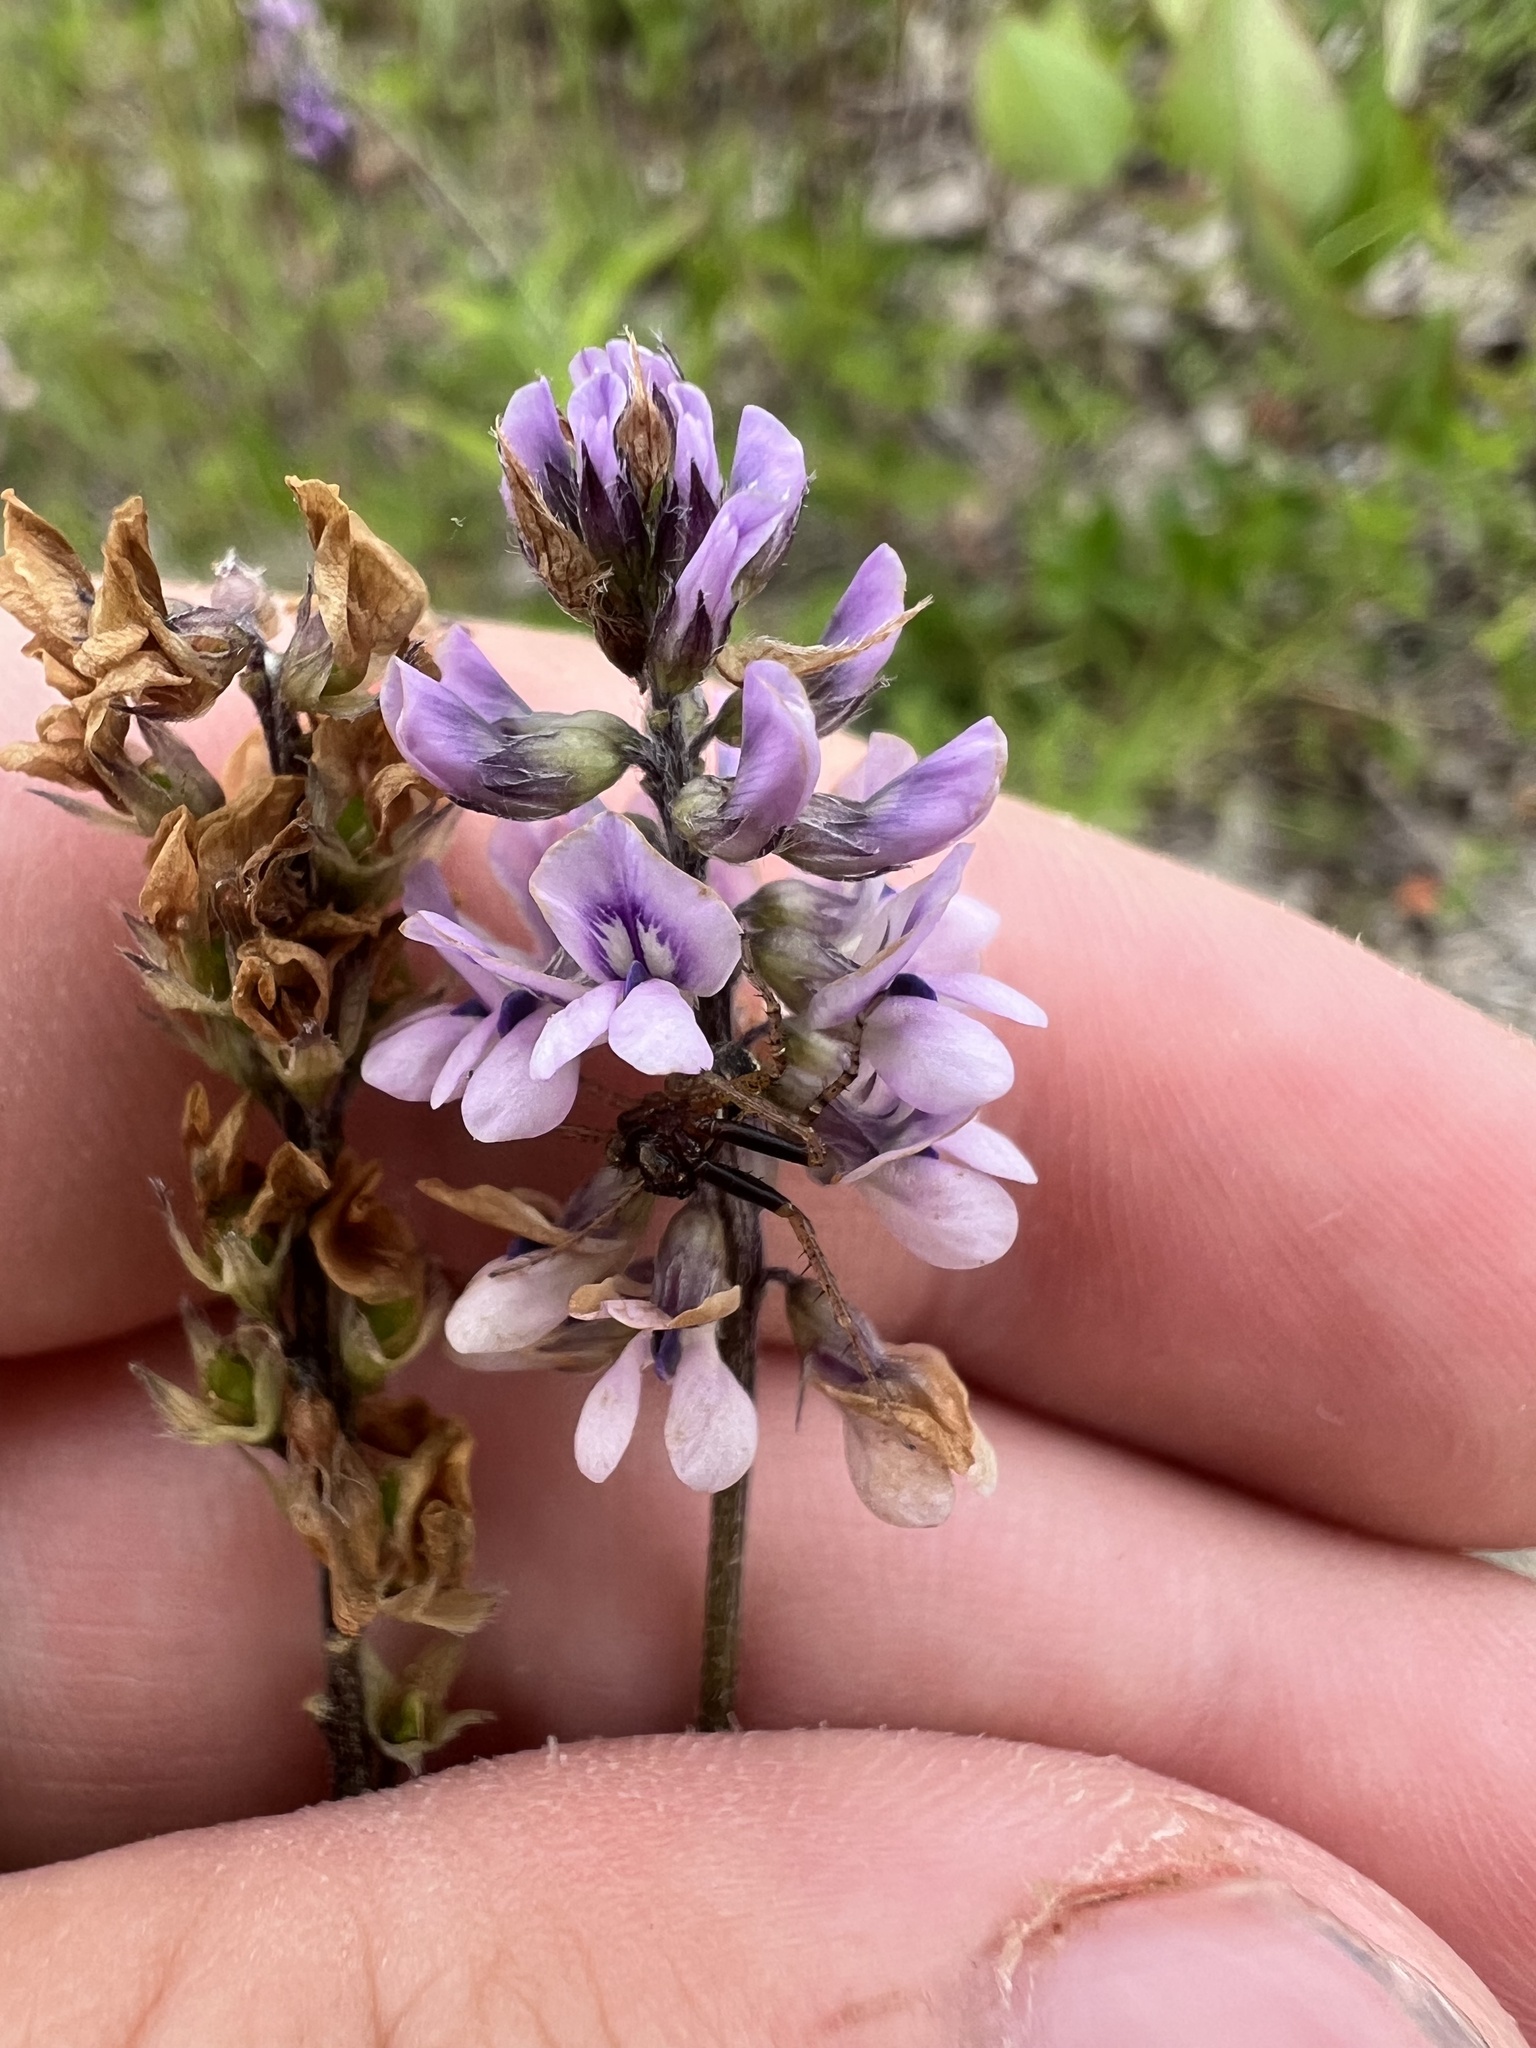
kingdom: Plantae
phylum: Tracheophyta
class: Magnoliopsida
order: Fabales
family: Fabaceae
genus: Orbexilum
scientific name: Orbexilum pedunculatum
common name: Sampson's snakeroot
